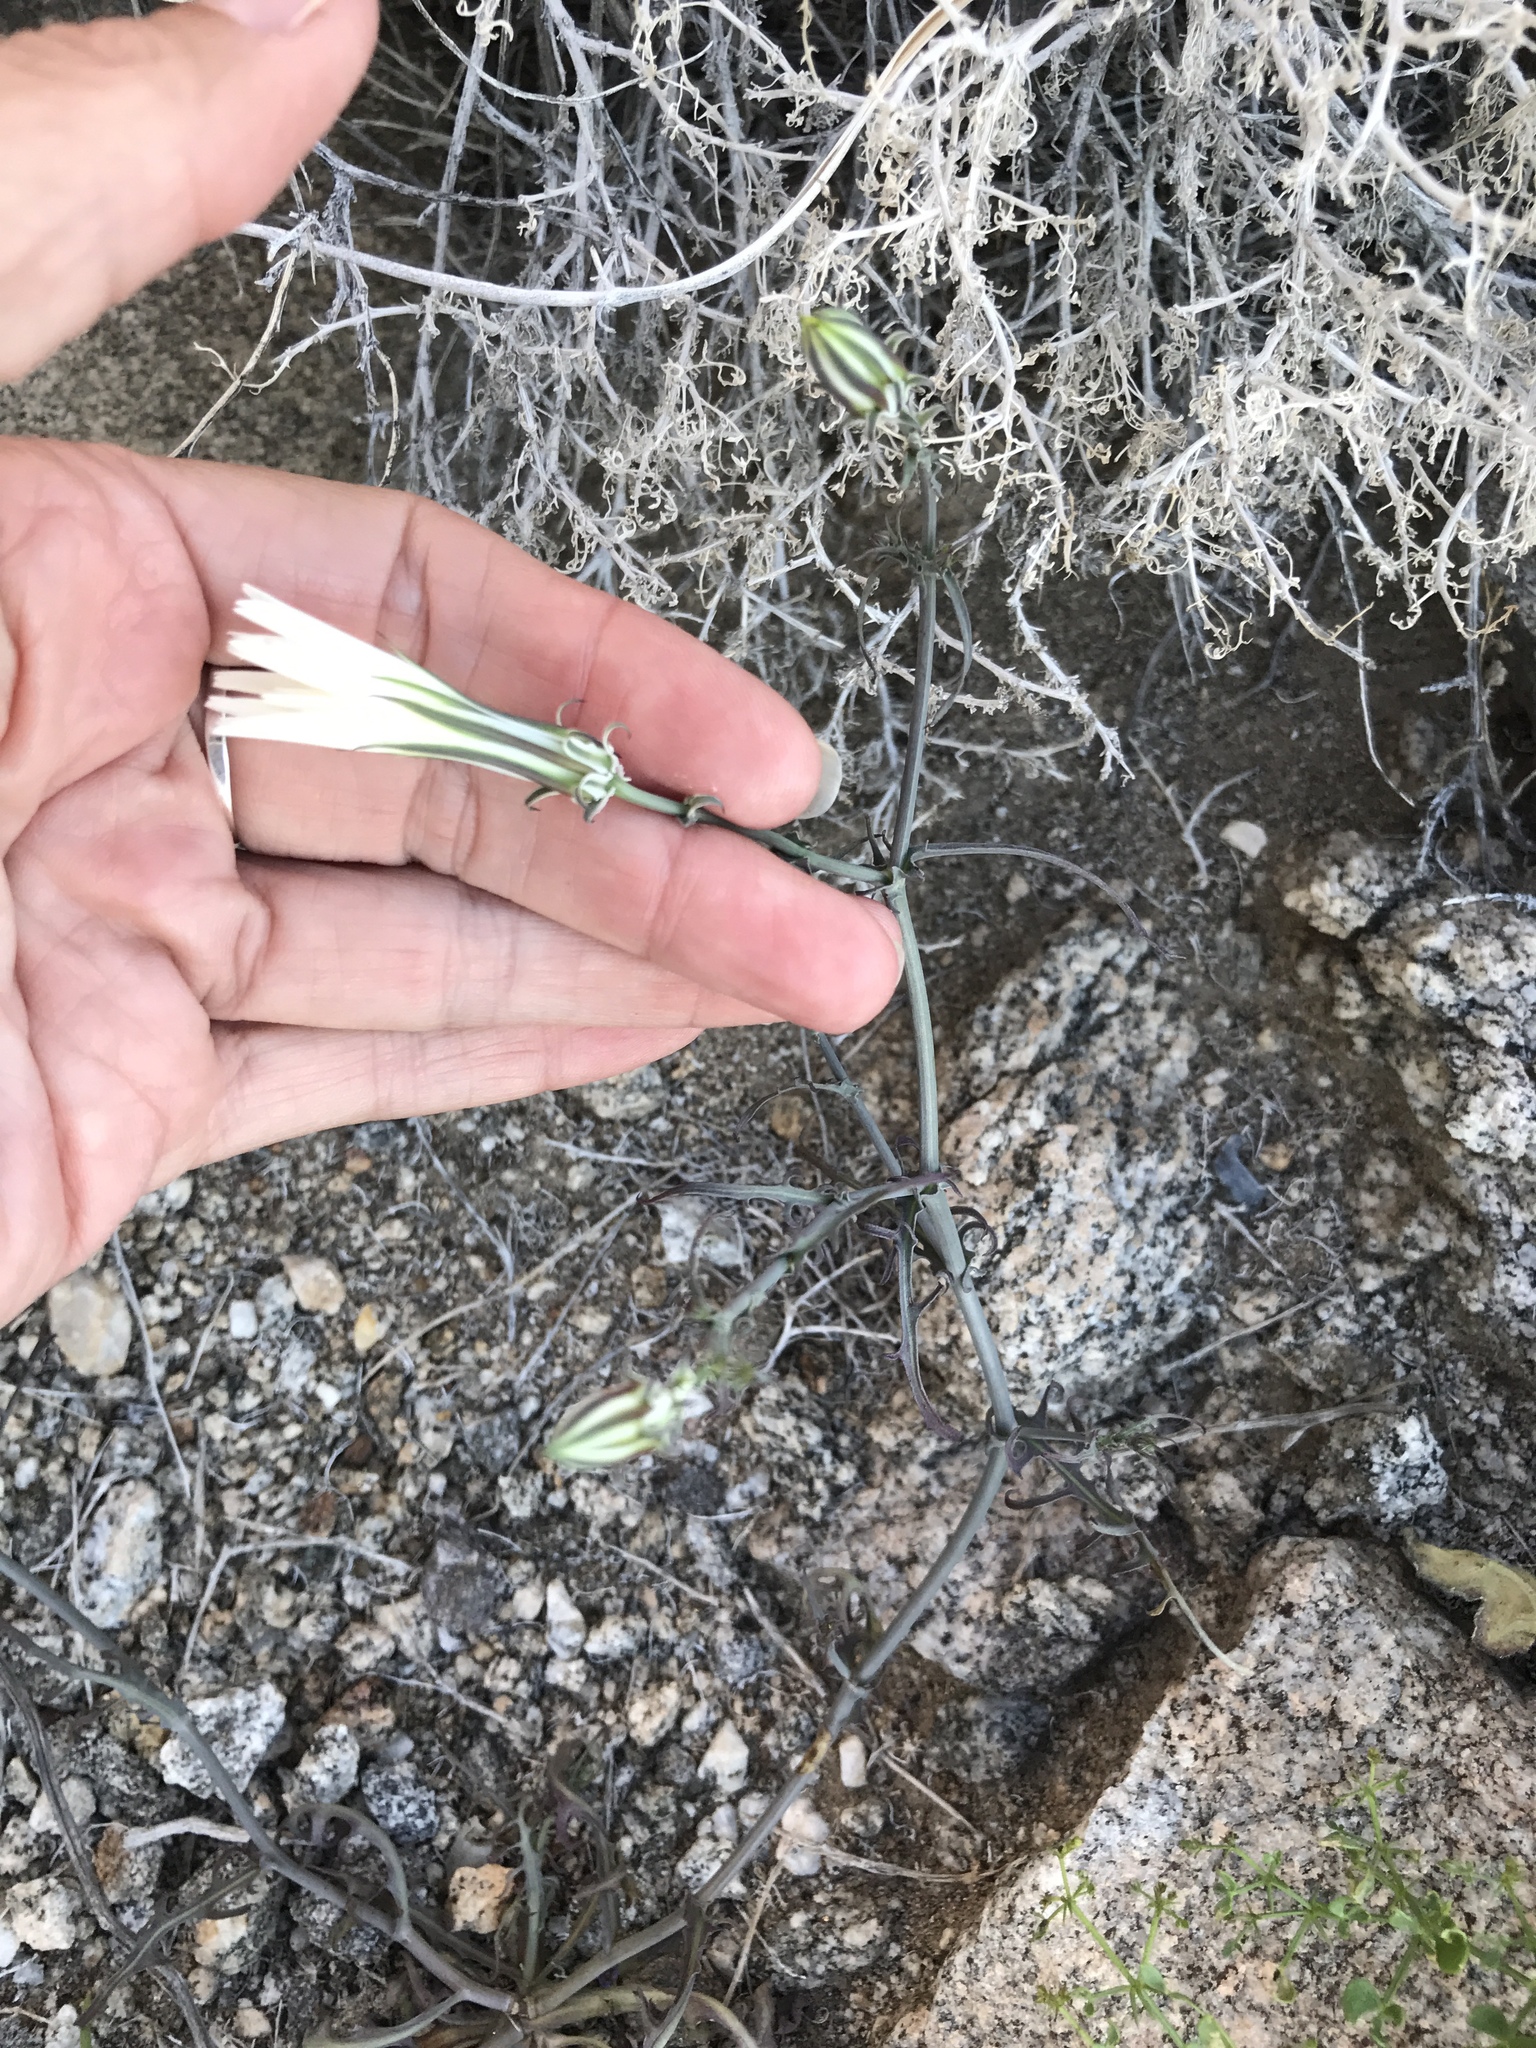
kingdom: Plantae
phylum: Tracheophyta
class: Magnoliopsida
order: Asterales
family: Asteraceae
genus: Rafinesquia
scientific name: Rafinesquia neomexicana
